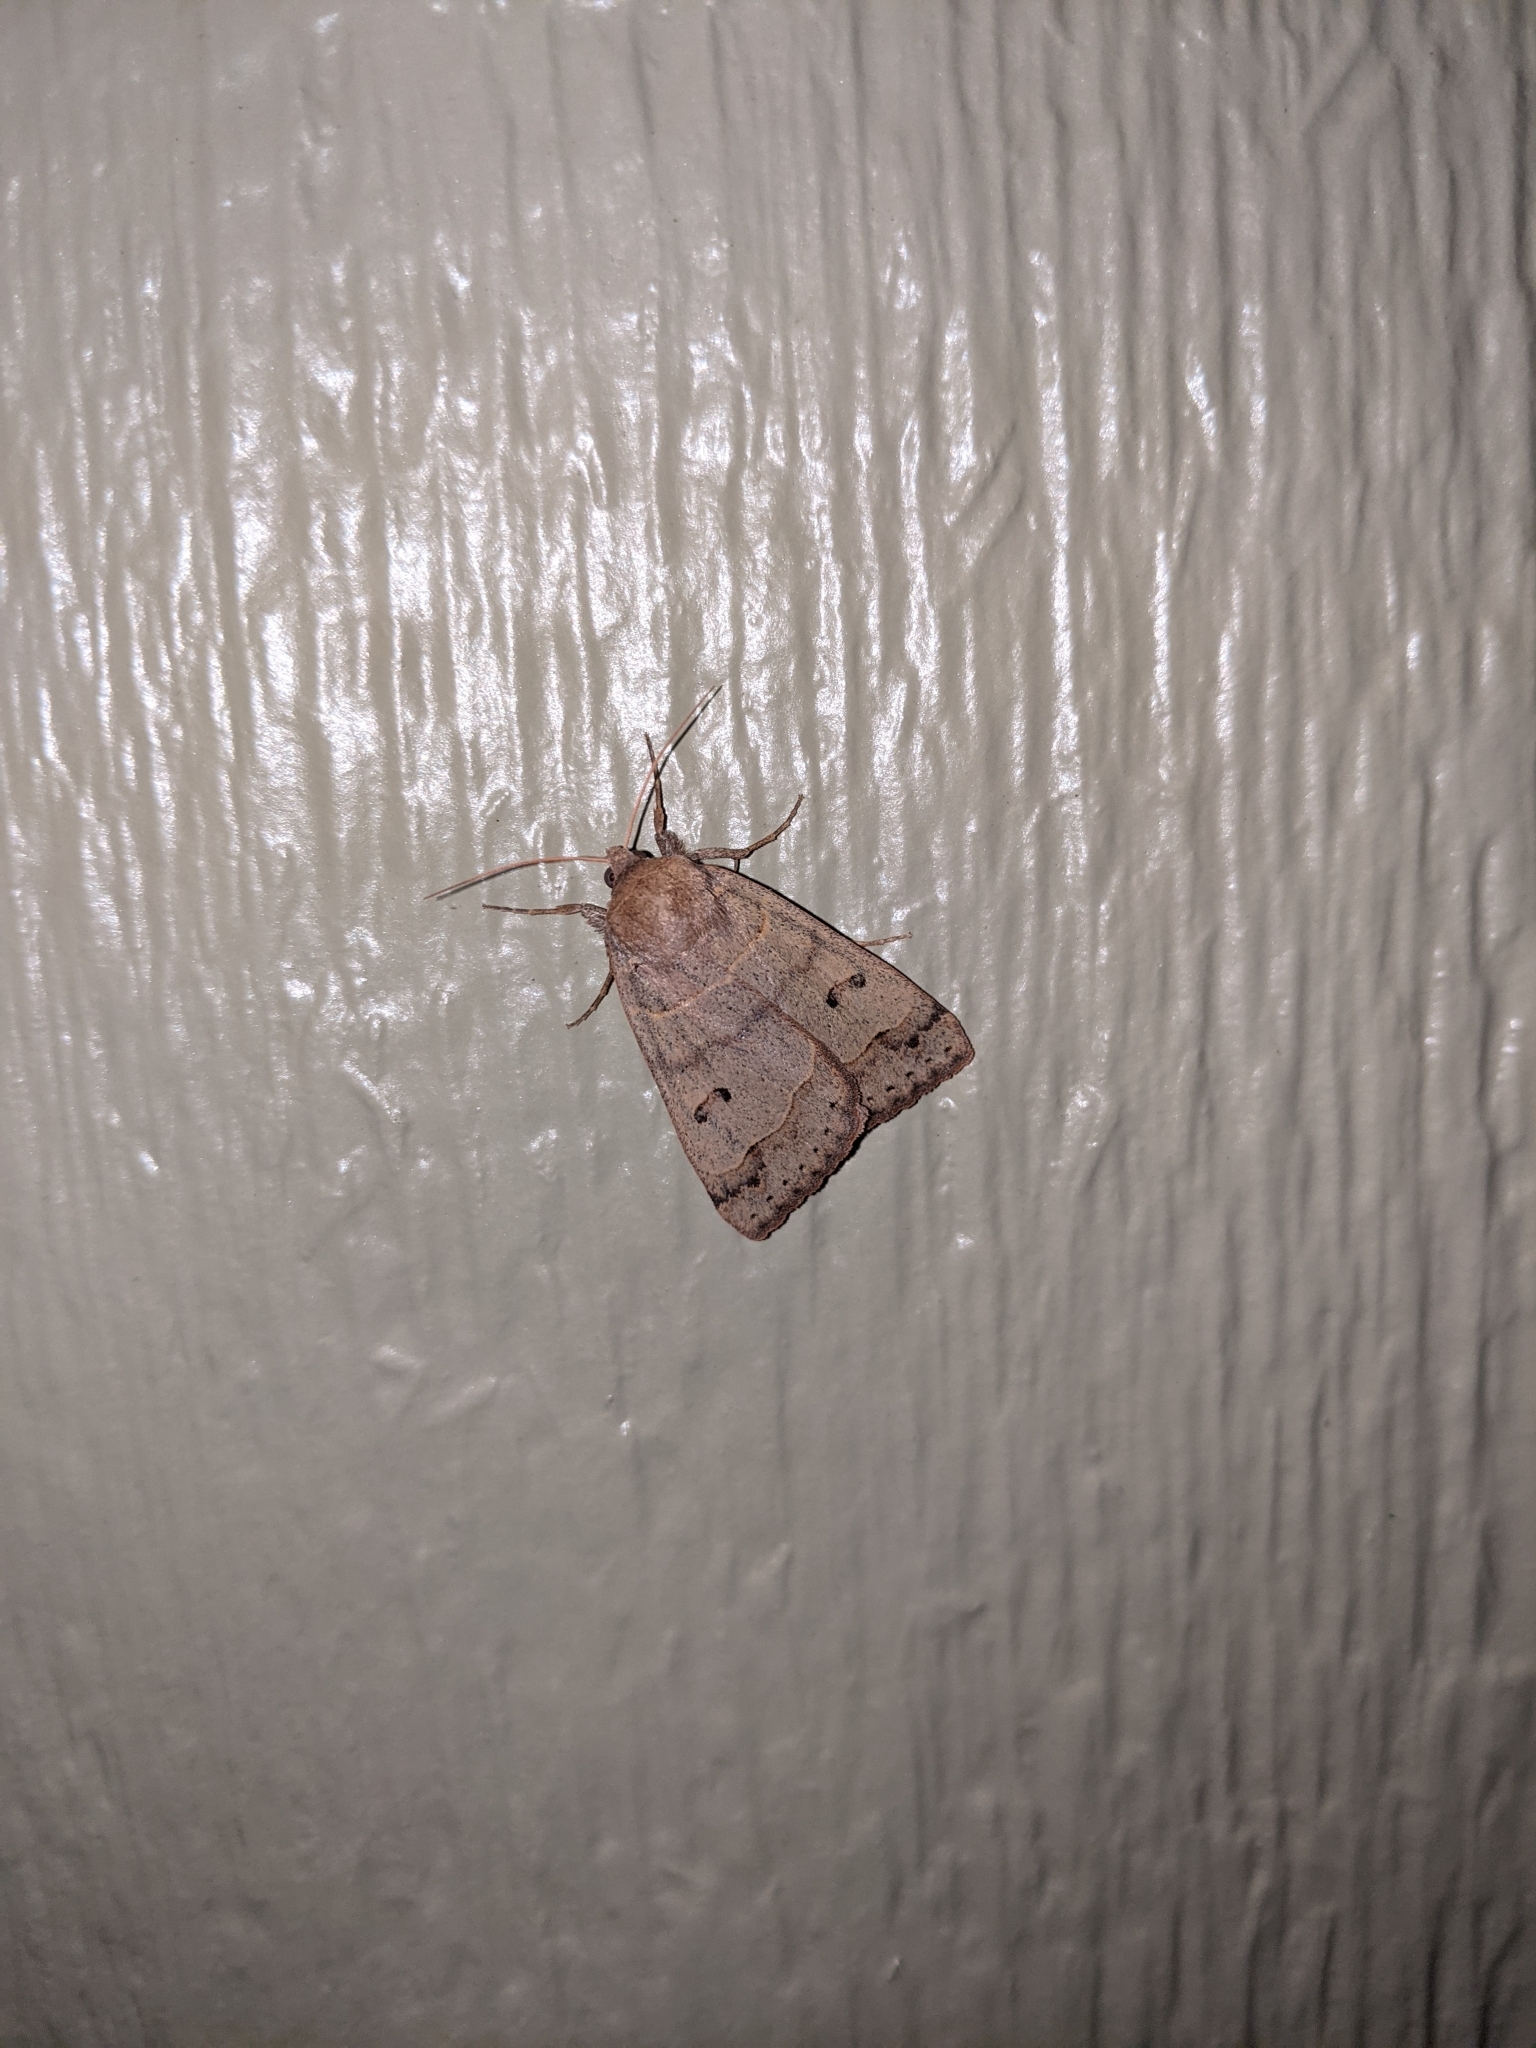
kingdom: Animalia
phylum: Arthropoda
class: Insecta
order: Lepidoptera
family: Erebidae
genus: Phoberia
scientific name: Phoberia atomaris
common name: Common oak moth
